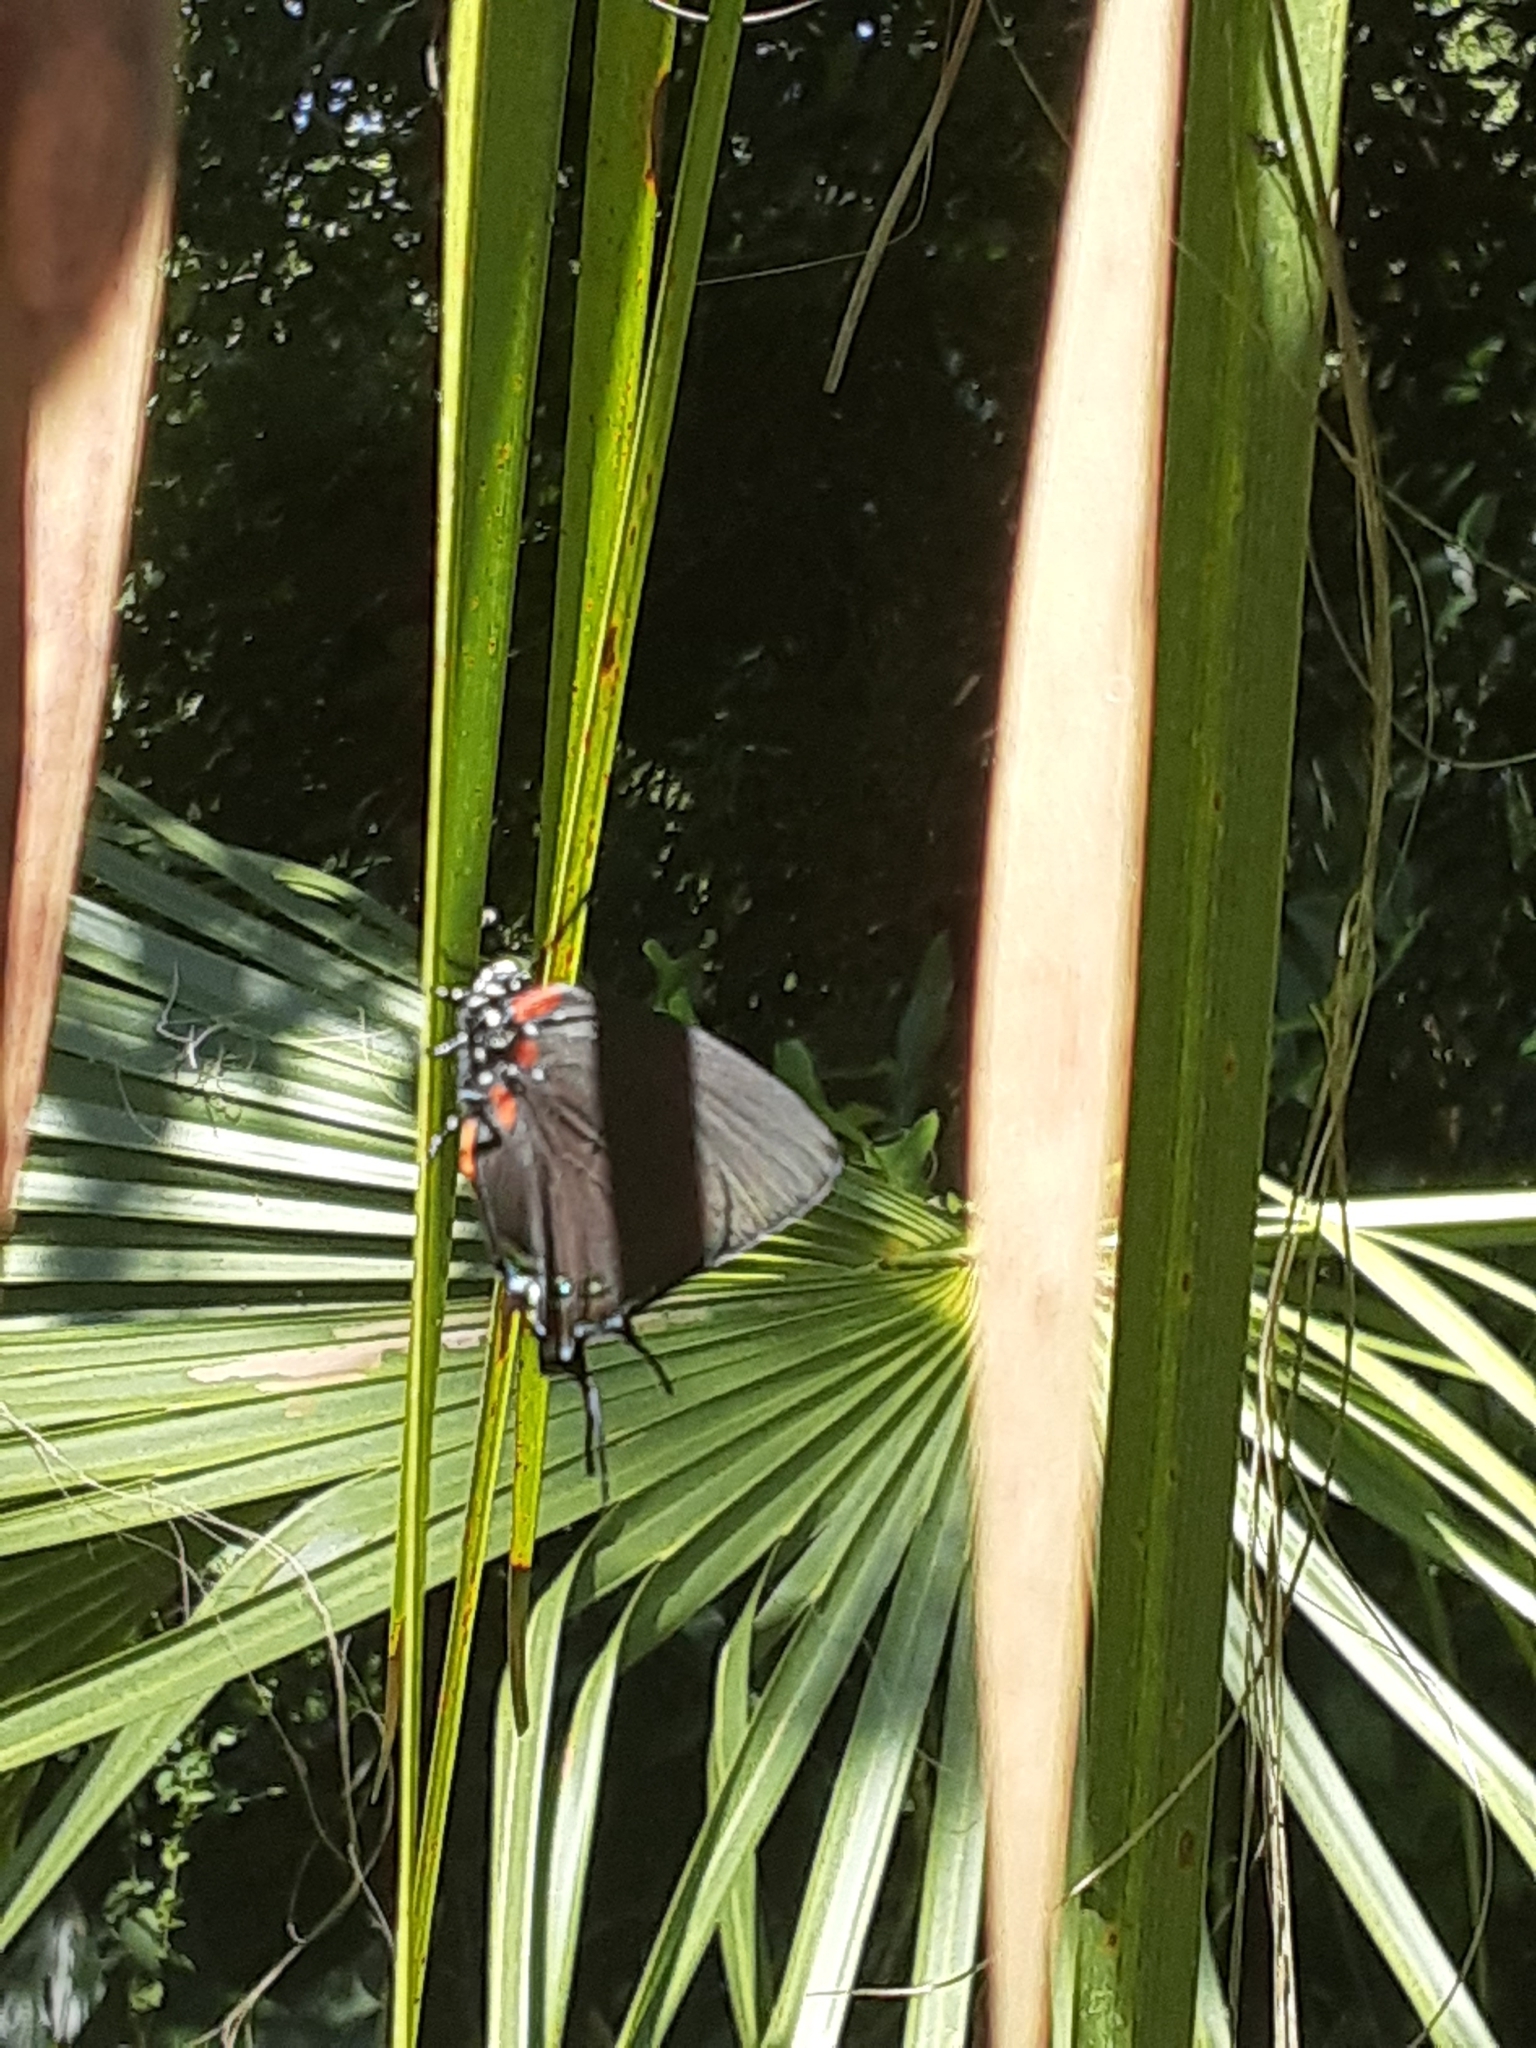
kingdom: Animalia
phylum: Arthropoda
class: Insecta
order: Lepidoptera
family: Lycaenidae
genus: Atlides
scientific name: Atlides halesus
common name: Great purple hairstreak
